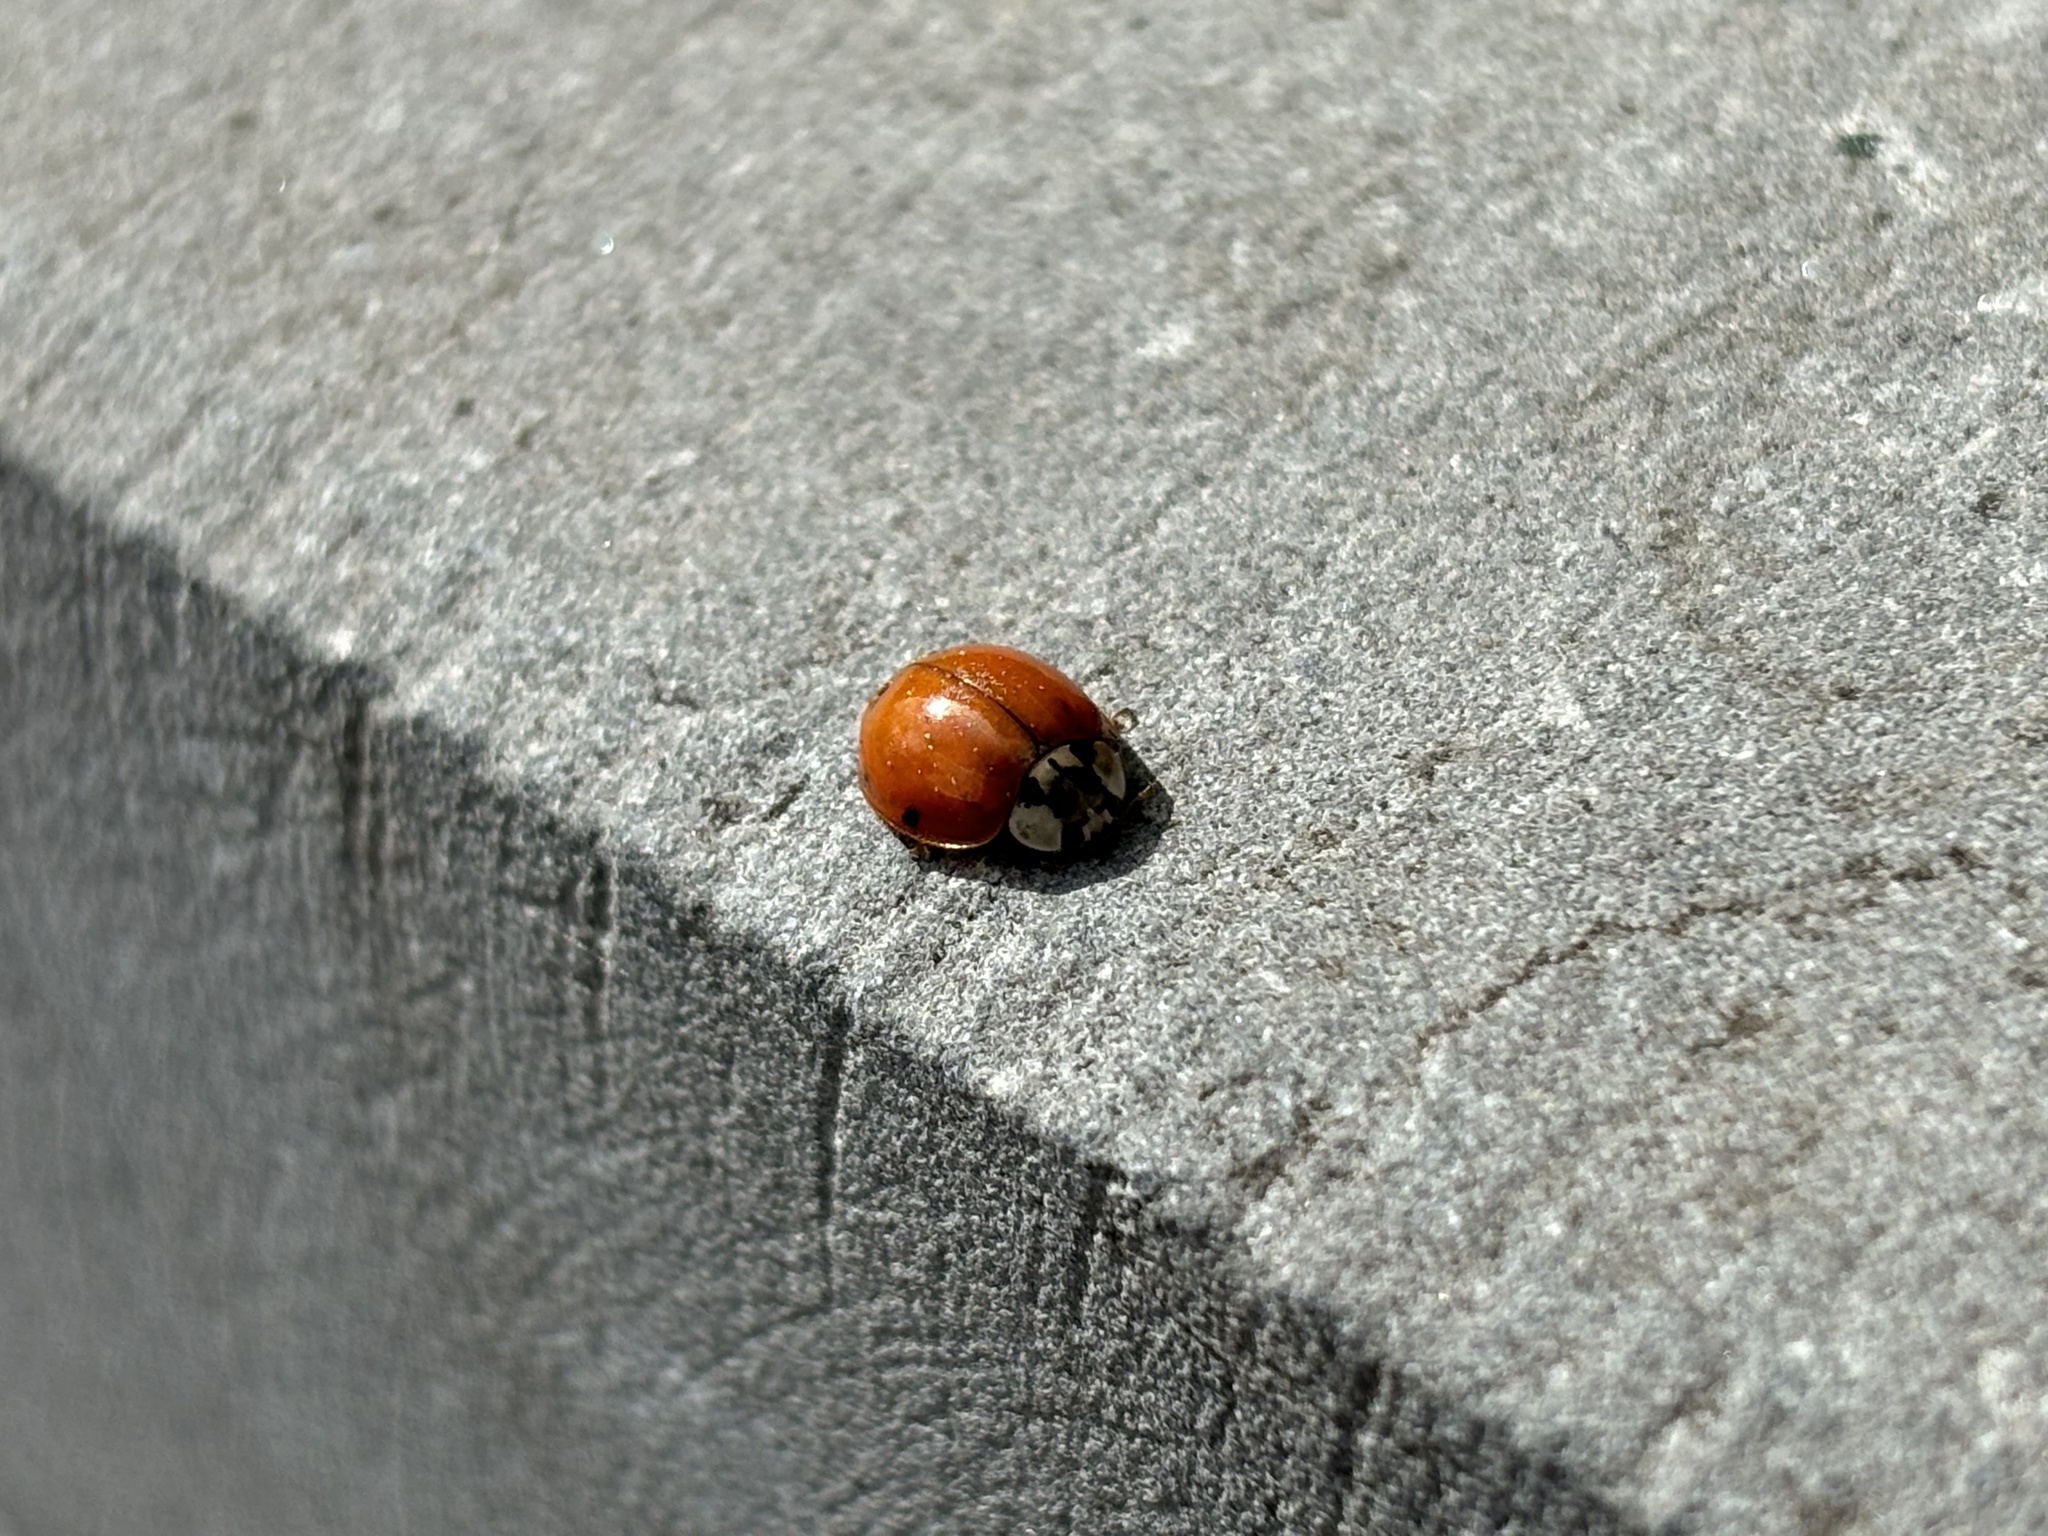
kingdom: Animalia
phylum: Arthropoda
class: Insecta
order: Coleoptera
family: Coccinellidae
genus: Harmonia
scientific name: Harmonia axyridis
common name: Harlequin ladybird
